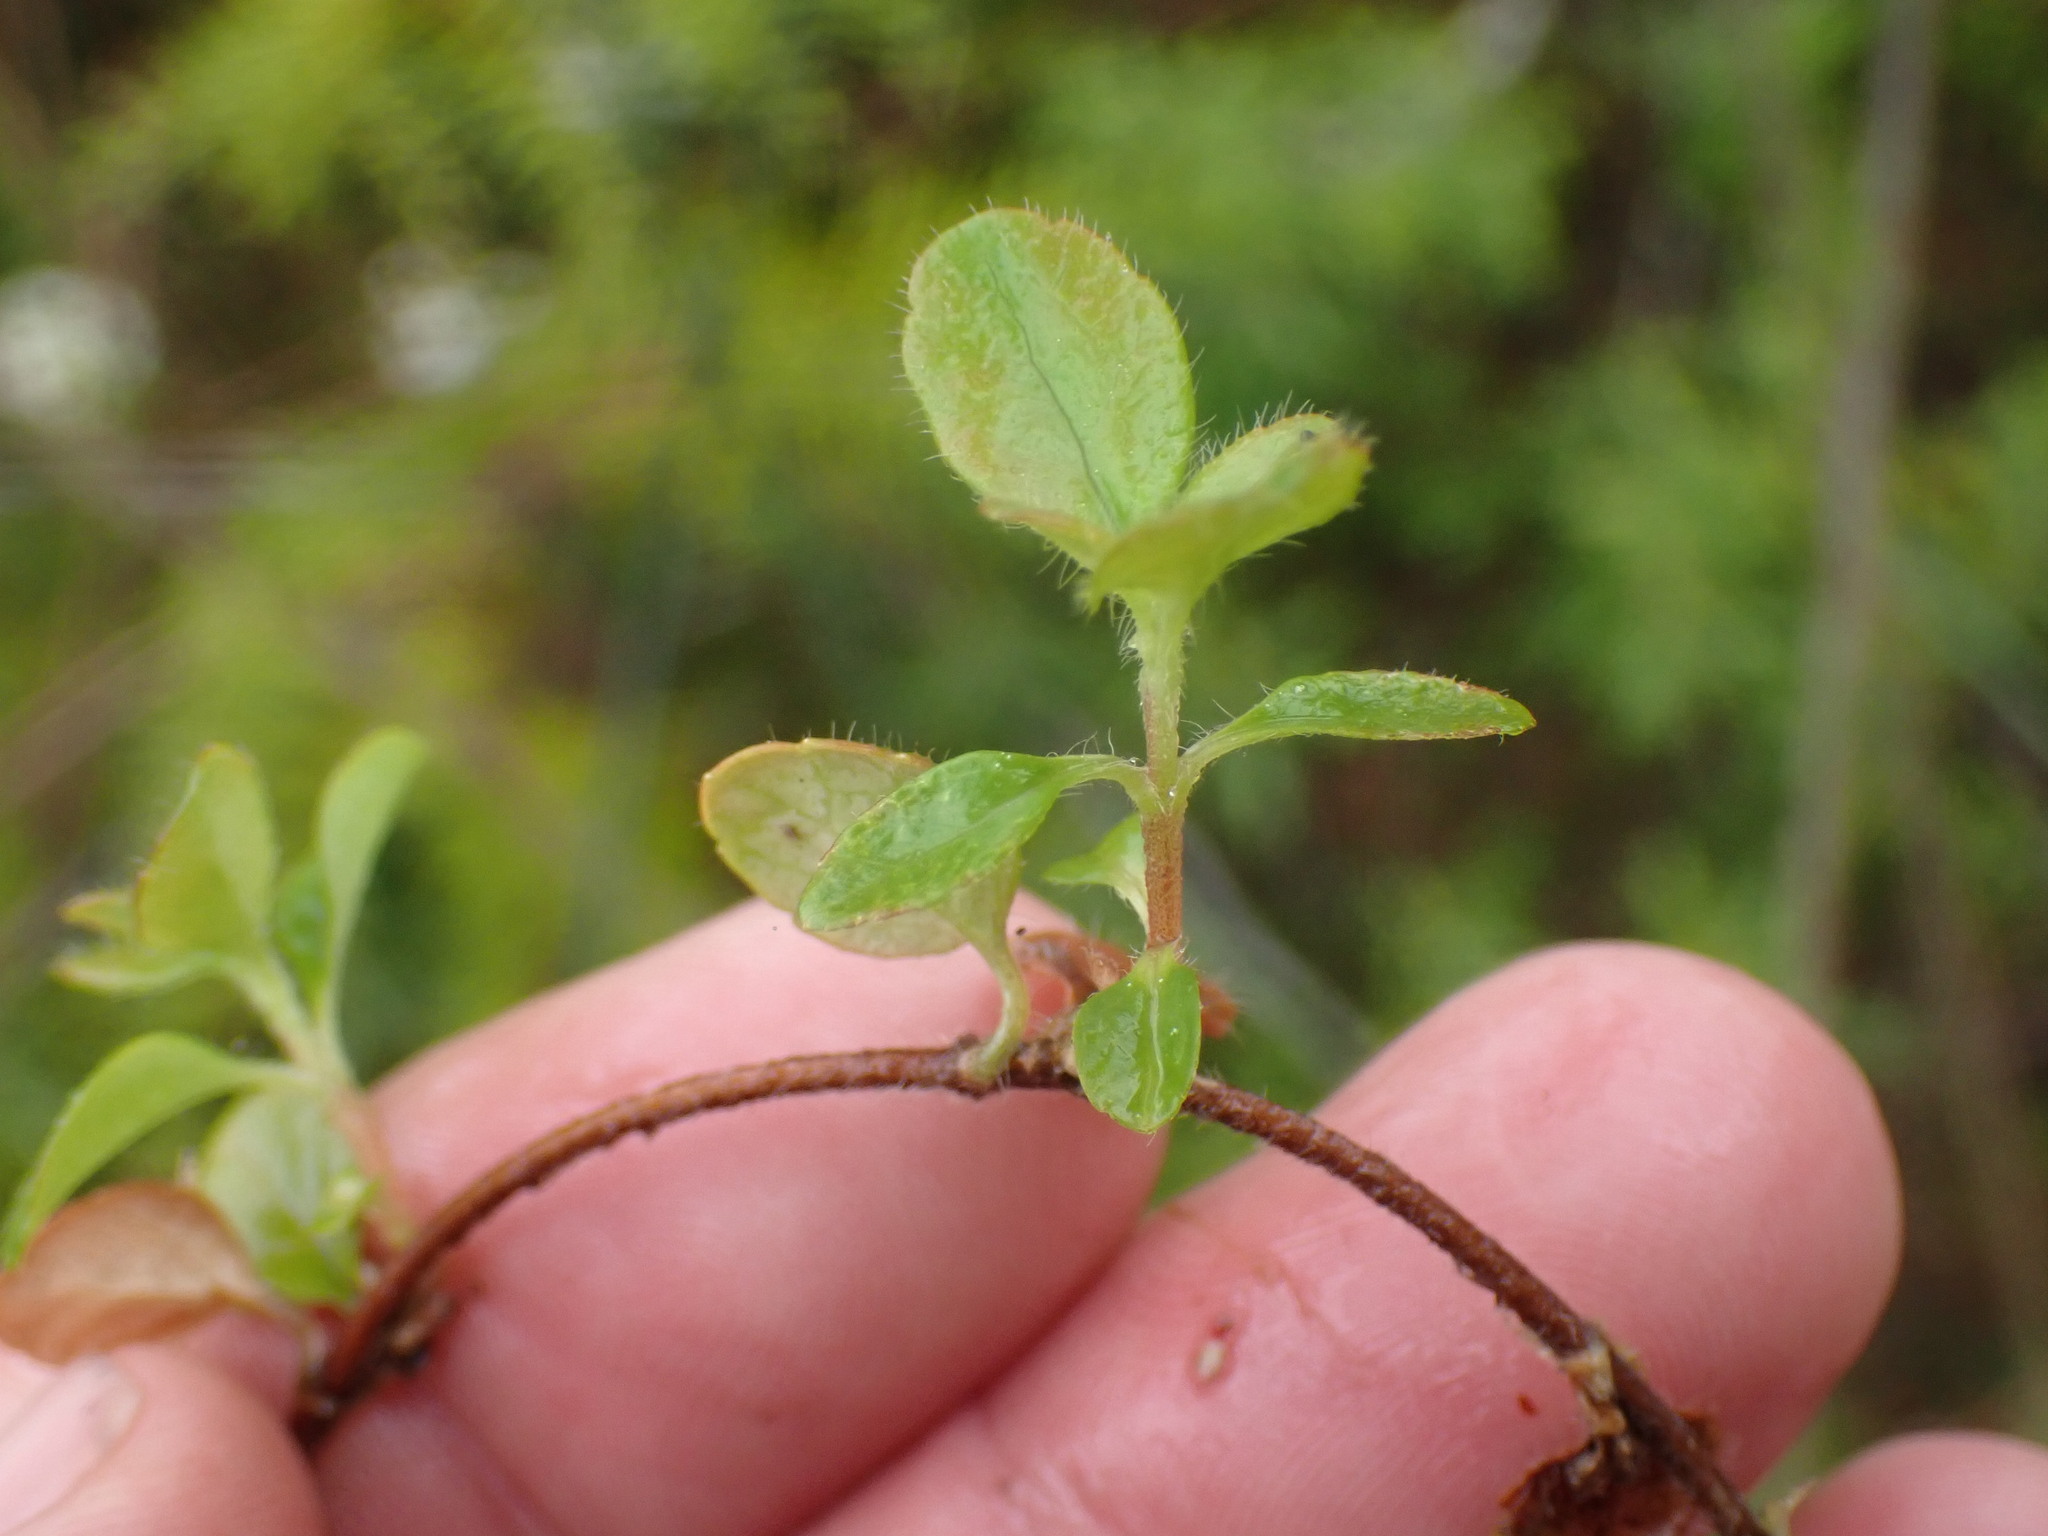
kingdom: Plantae
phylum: Tracheophyta
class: Magnoliopsida
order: Dipsacales
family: Caprifoliaceae
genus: Linnaea
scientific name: Linnaea borealis
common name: Twinflower
